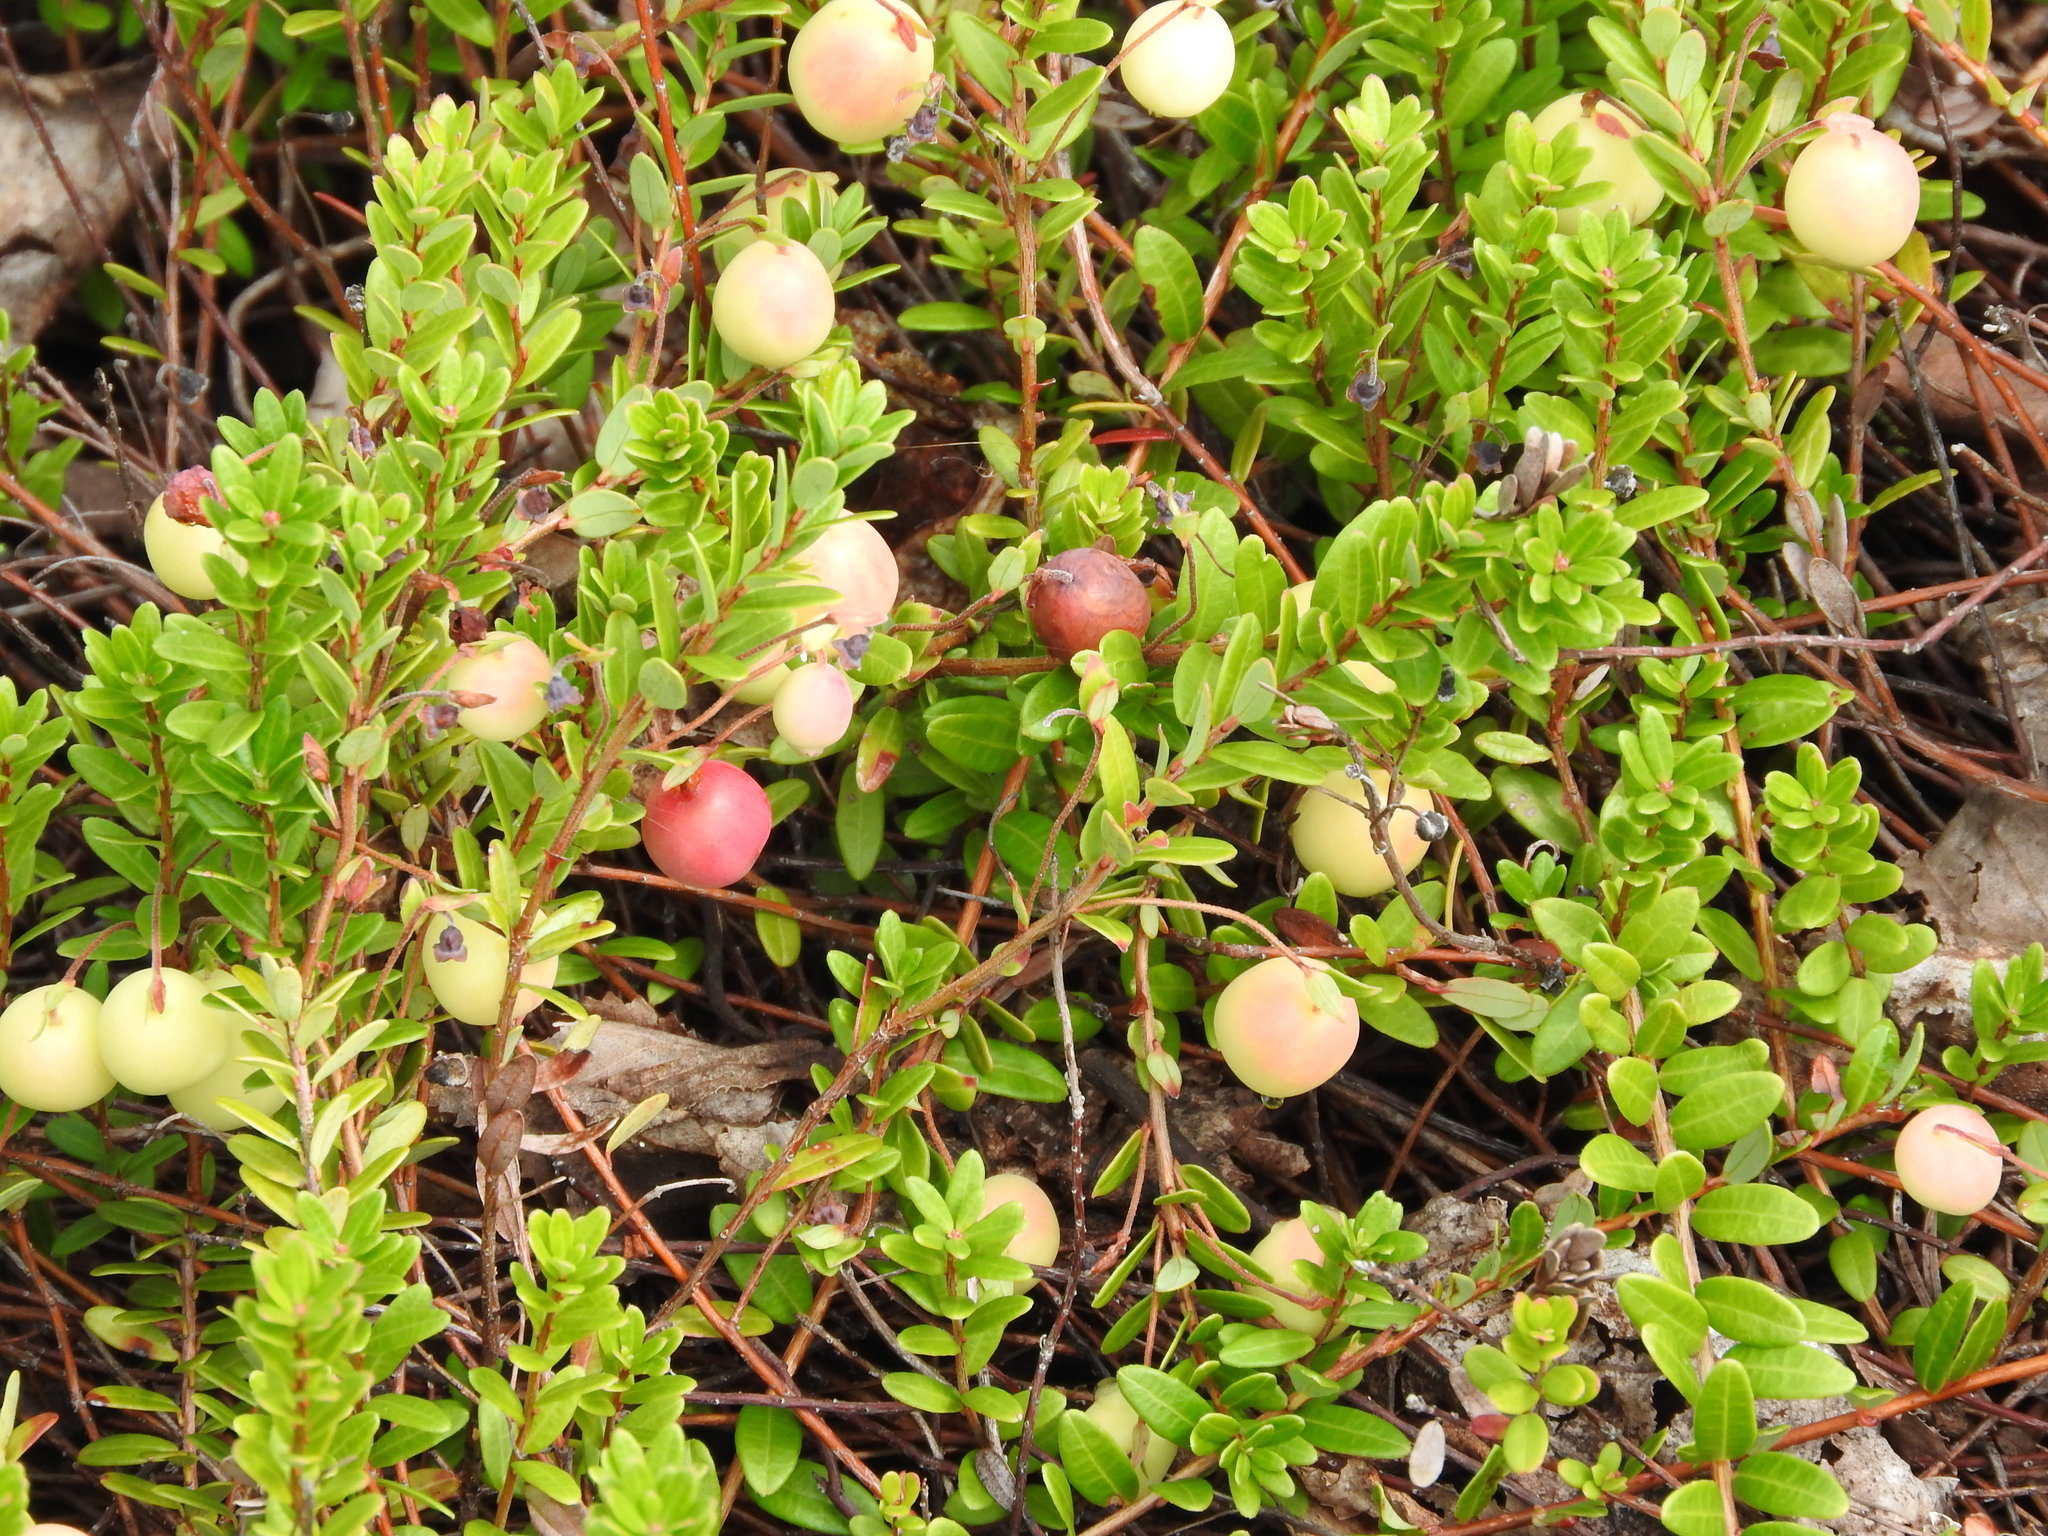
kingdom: Plantae
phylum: Tracheophyta
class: Magnoliopsida
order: Ericales
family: Ericaceae
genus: Vaccinium
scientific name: Vaccinium macrocarpon
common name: American cranberry
